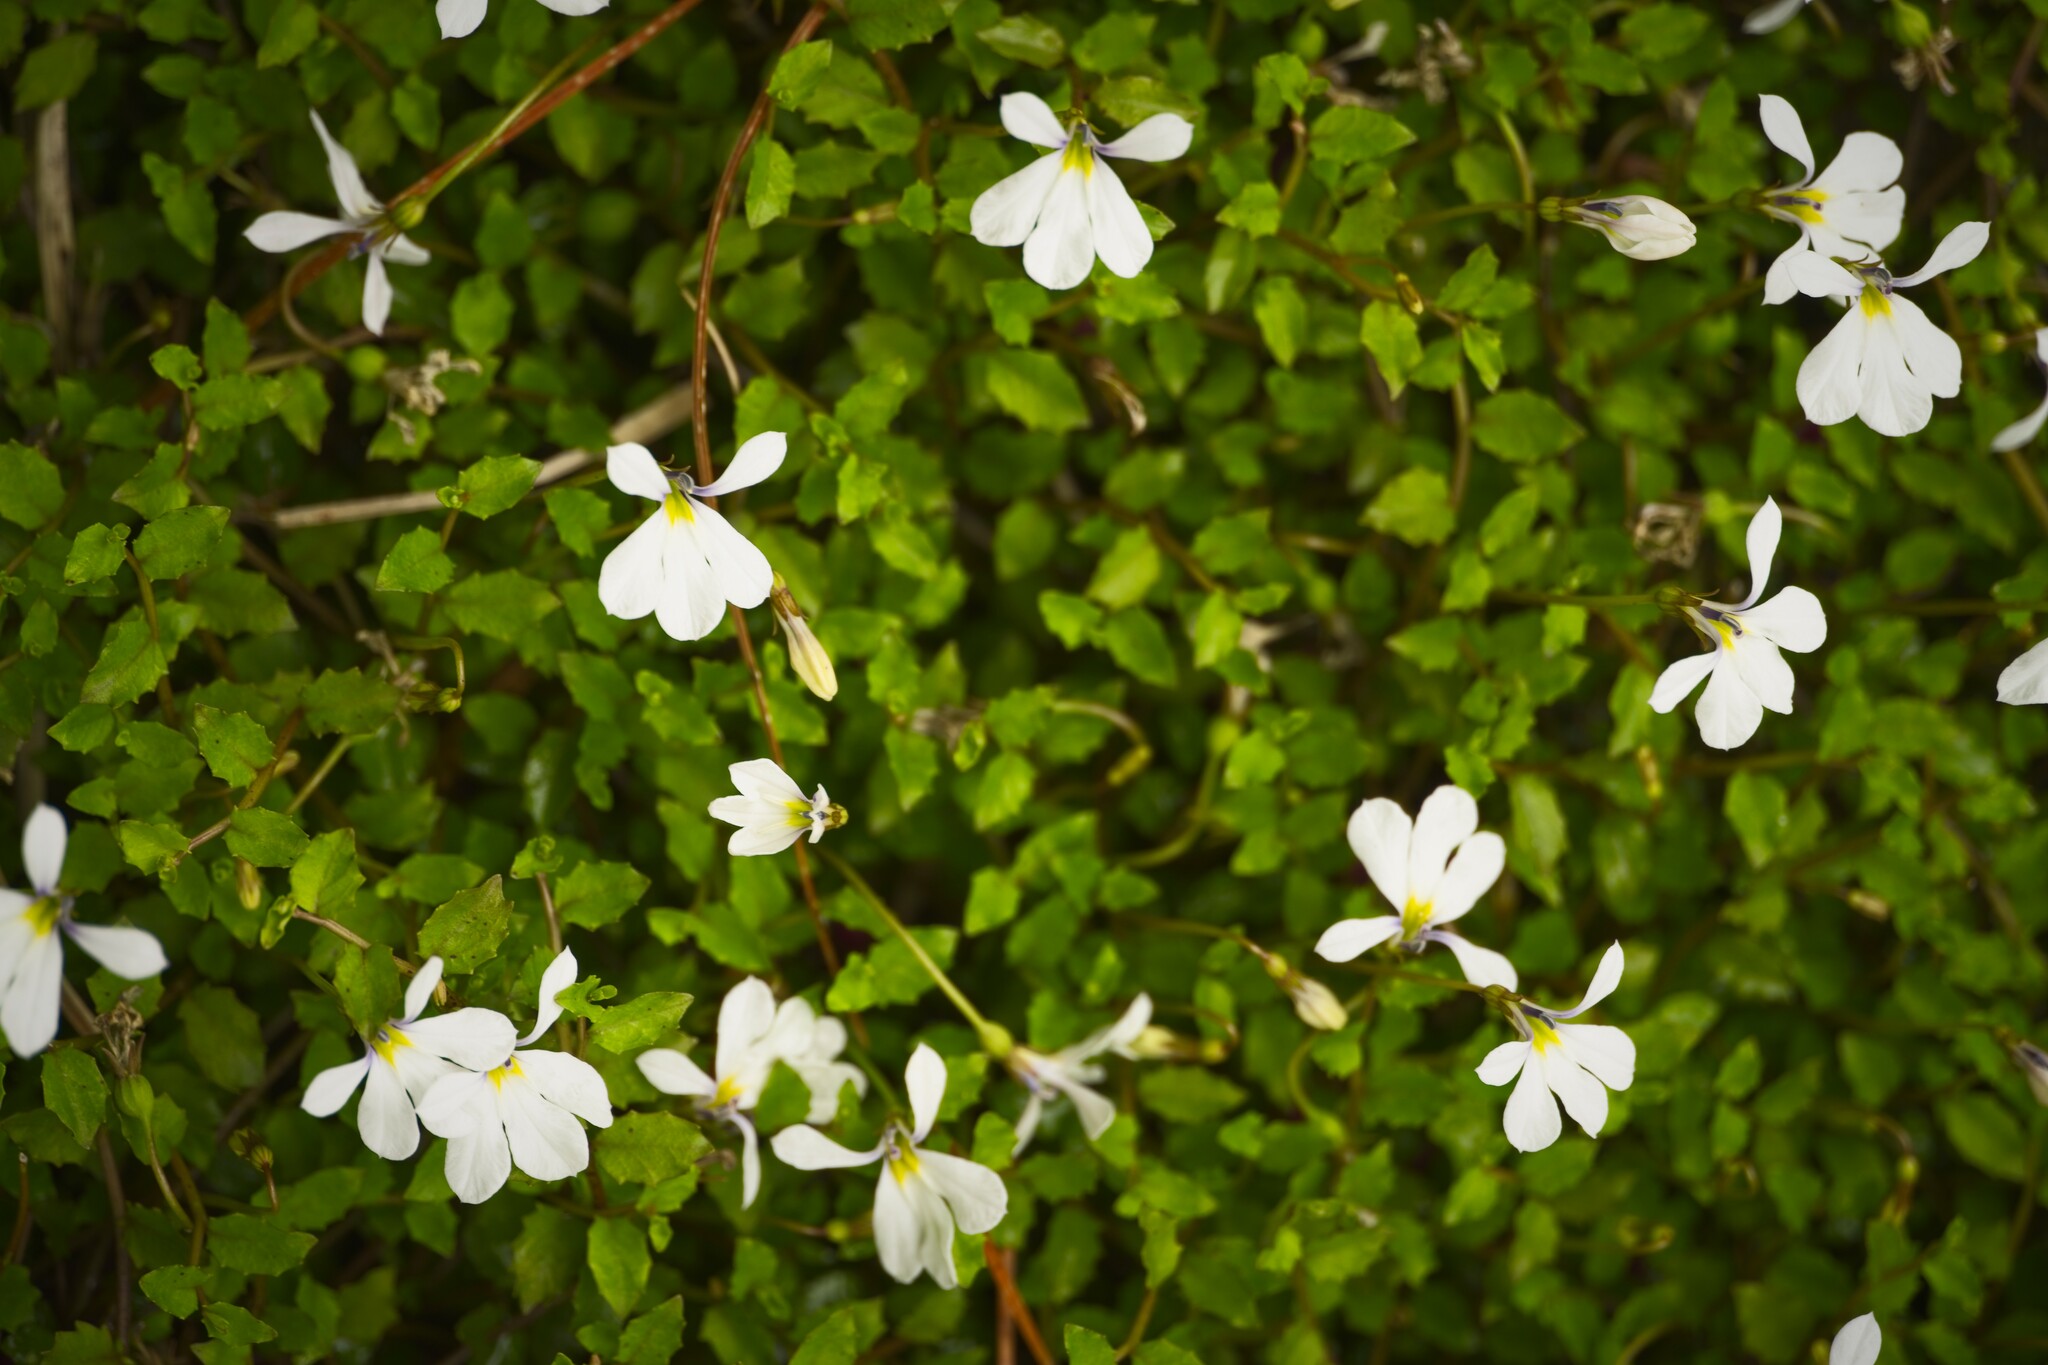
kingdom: Plantae
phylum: Tracheophyta
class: Magnoliopsida
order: Asterales
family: Campanulaceae
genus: Lobelia
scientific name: Lobelia angulata
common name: Lawn lobelia
